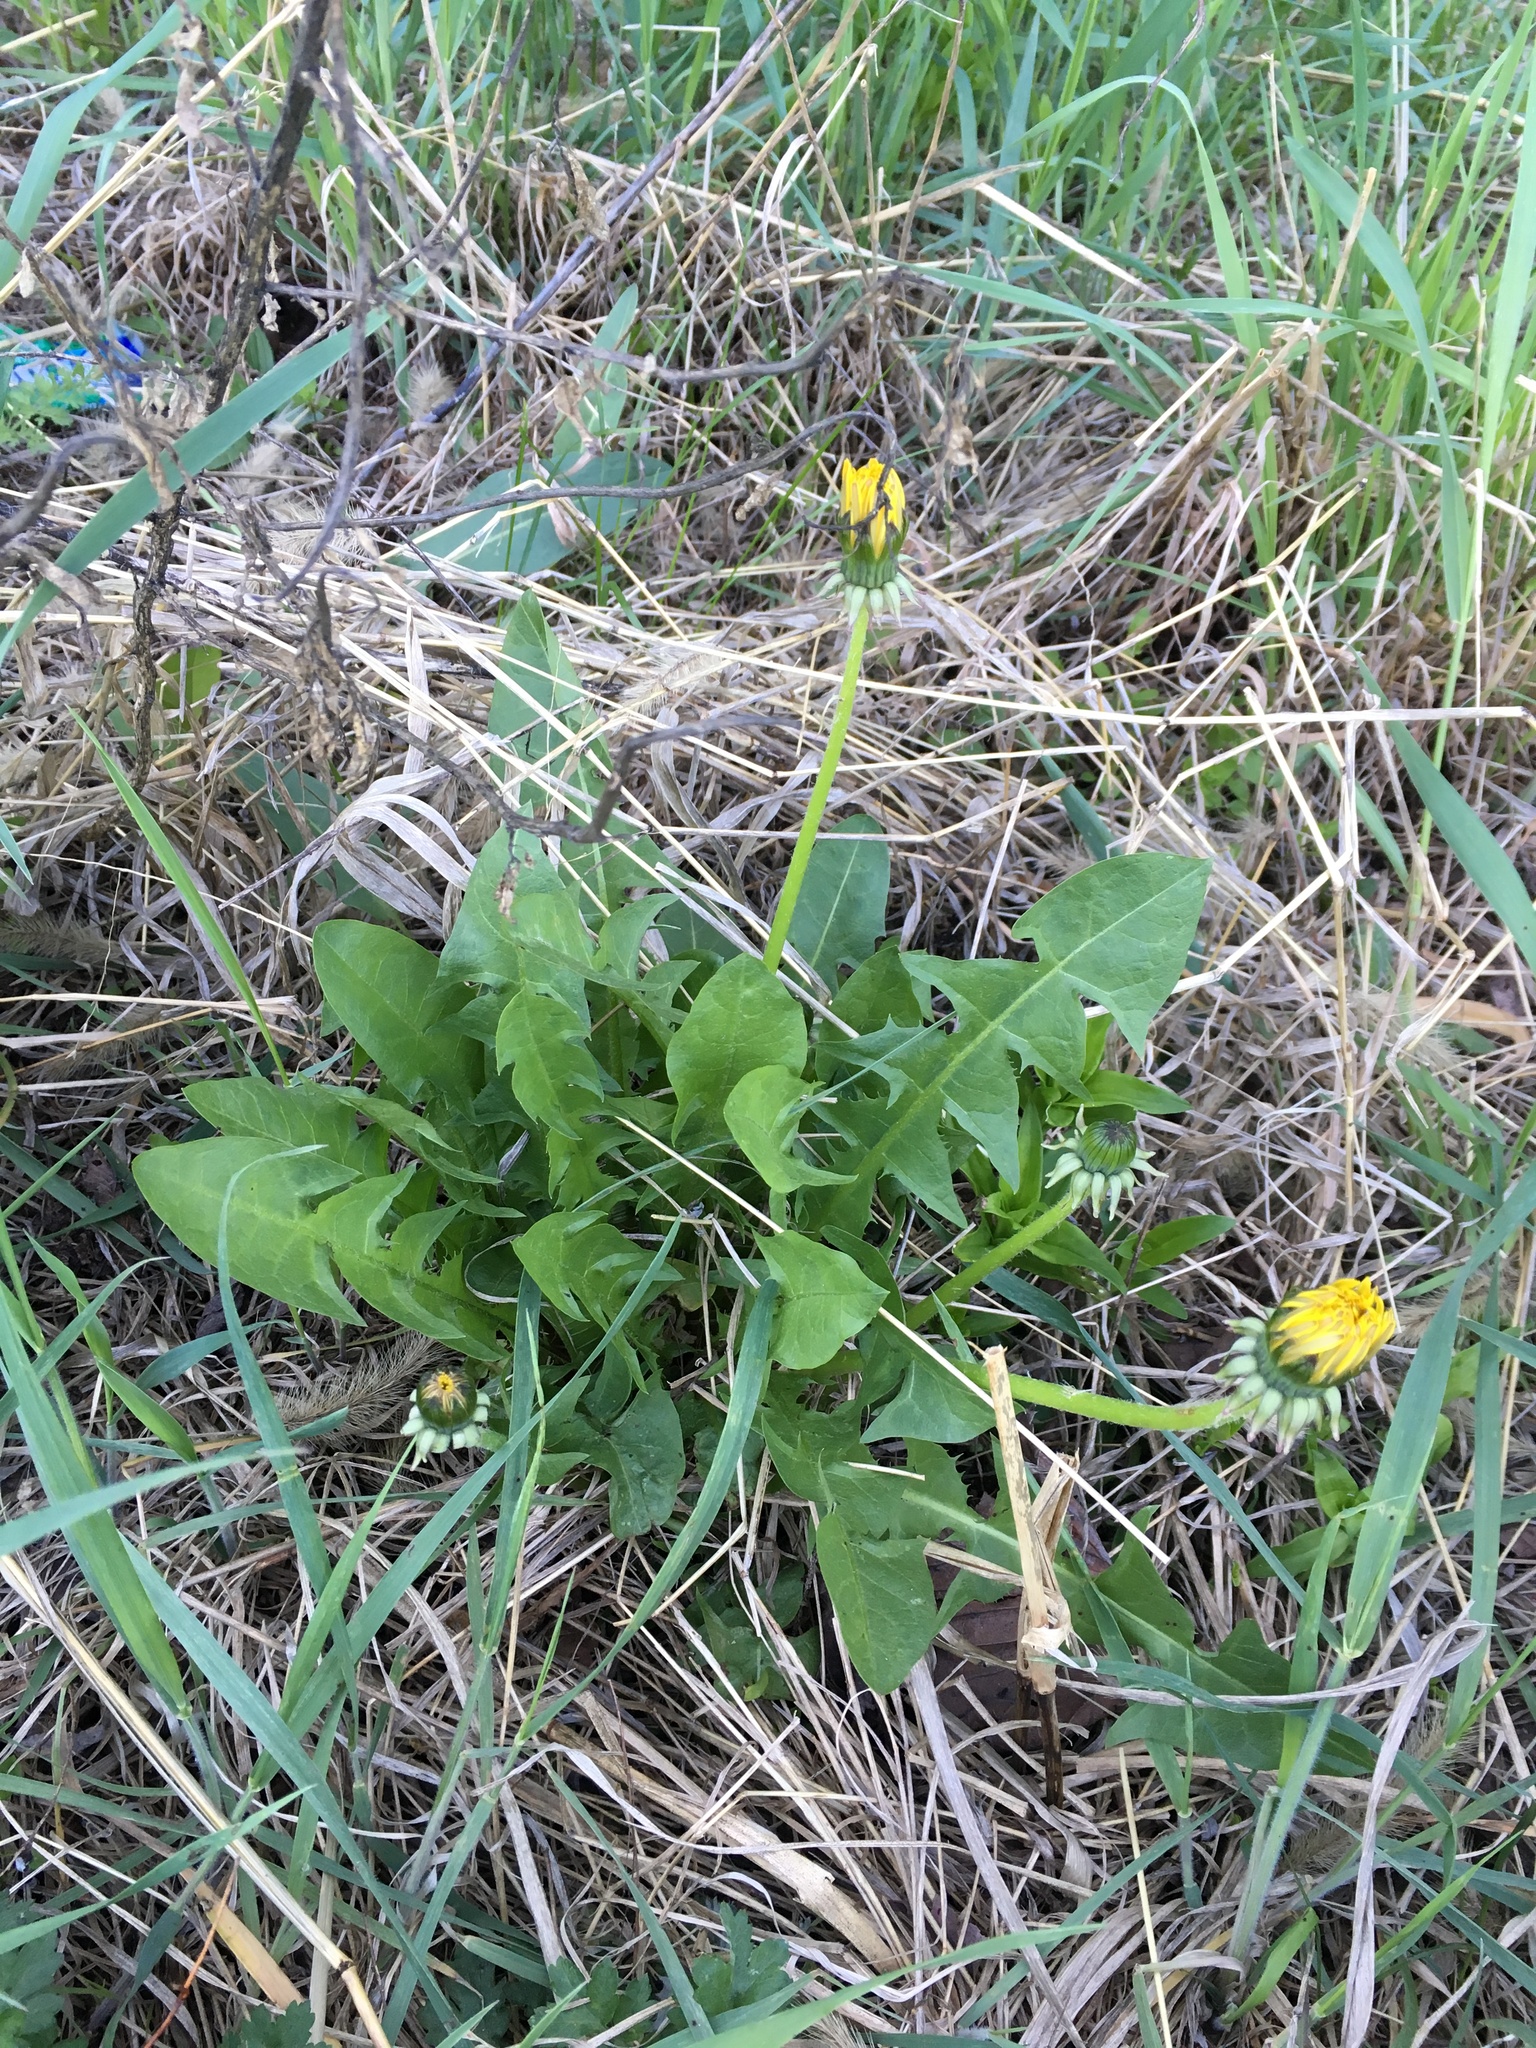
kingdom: Plantae
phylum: Tracheophyta
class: Magnoliopsida
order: Asterales
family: Asteraceae
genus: Taraxacum
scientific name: Taraxacum officinale
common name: Common dandelion
